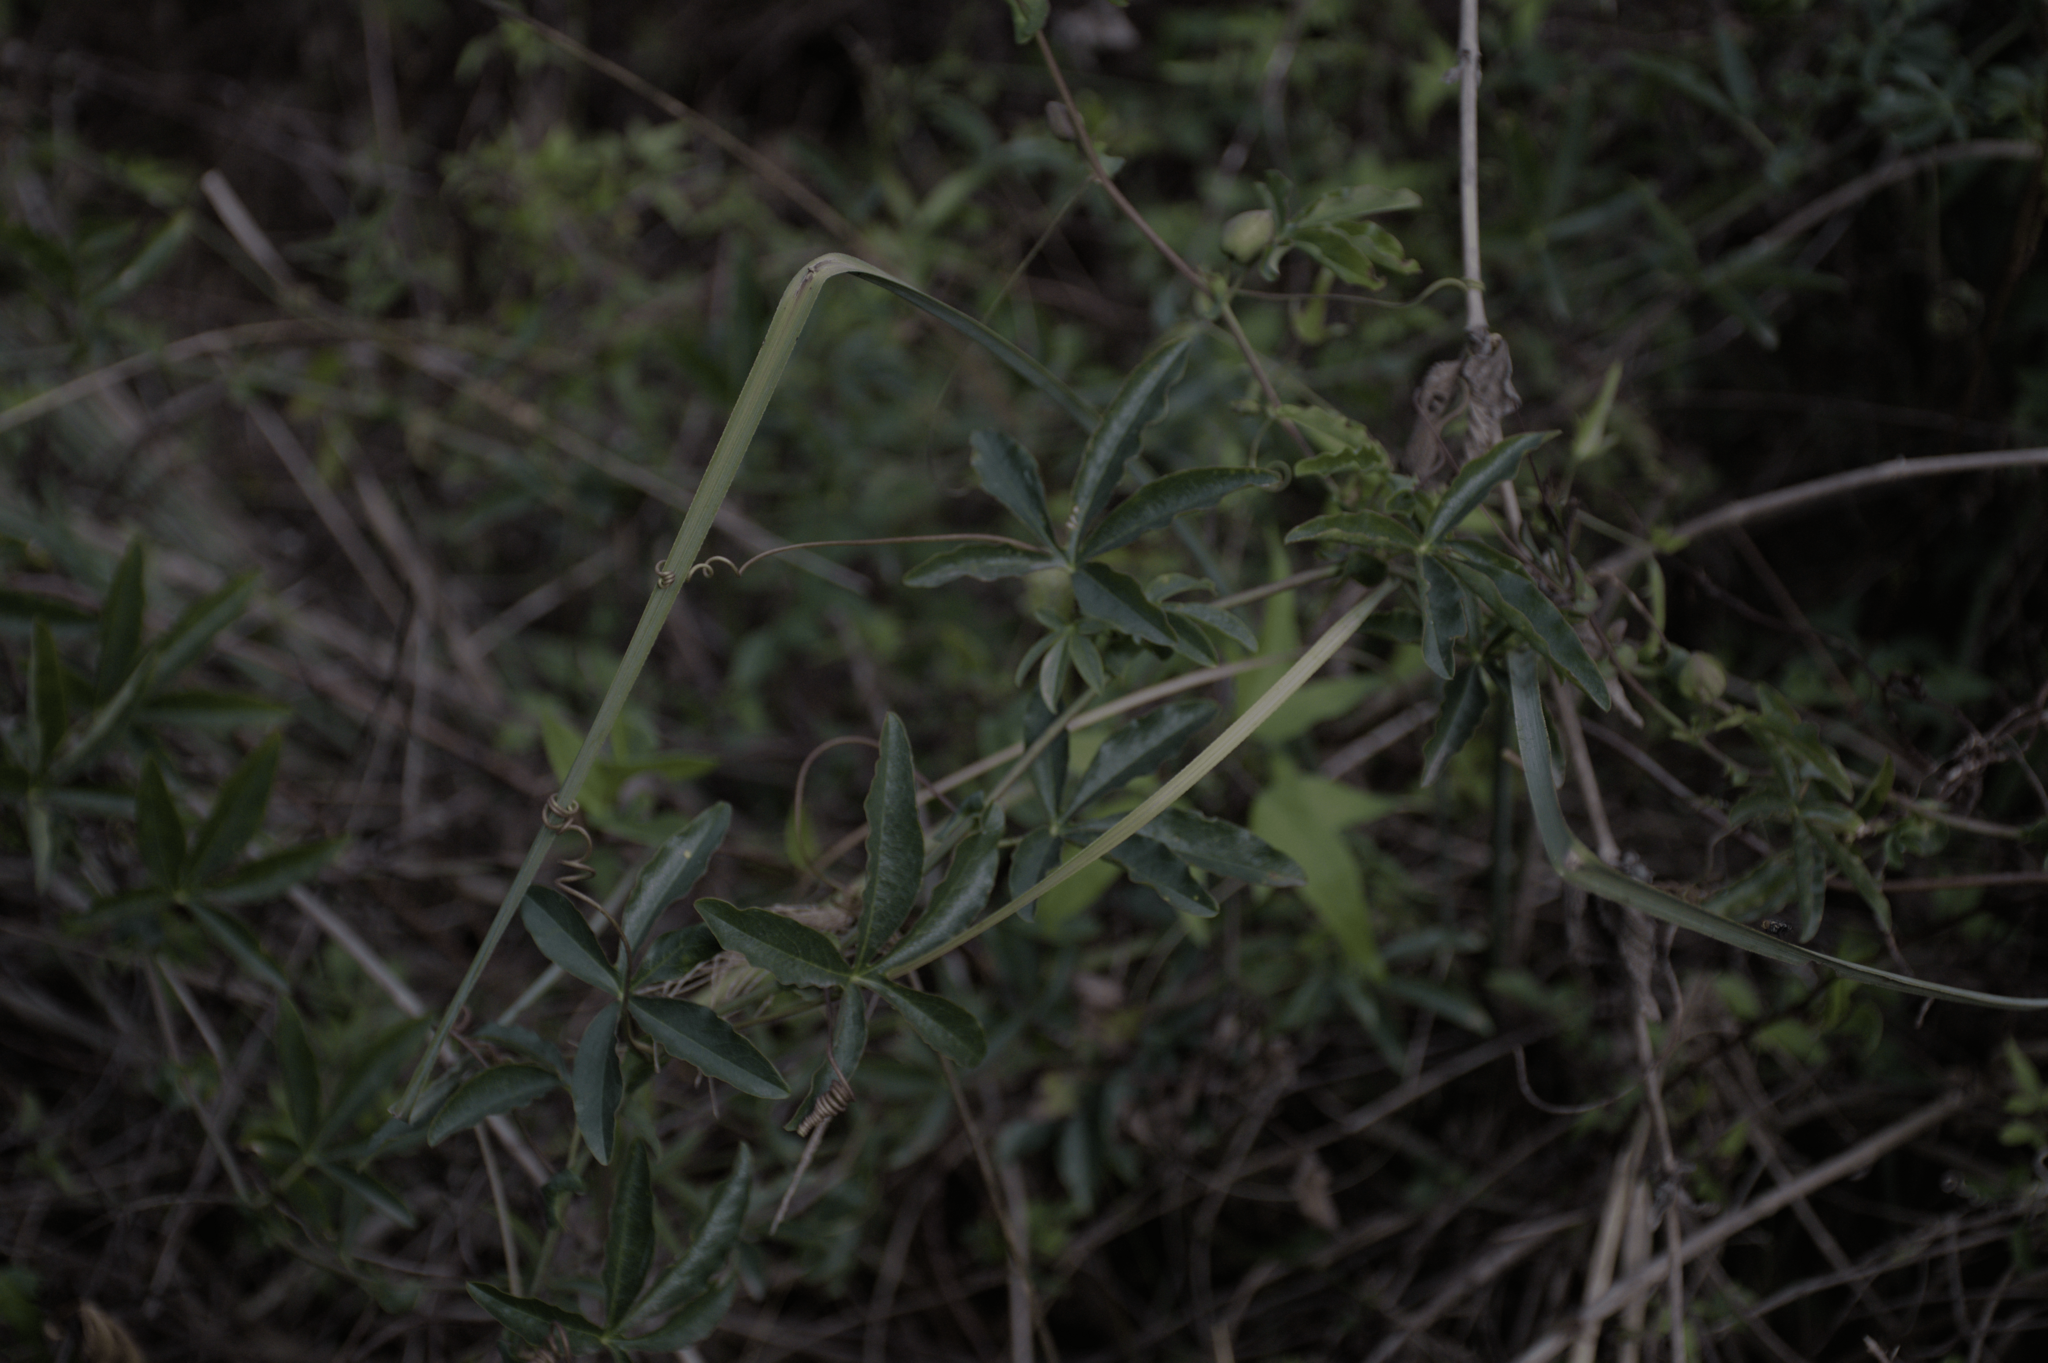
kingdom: Plantae
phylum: Tracheophyta
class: Magnoliopsida
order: Malpighiales
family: Passifloraceae
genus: Passiflora
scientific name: Passiflora caerulea
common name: Blue passionflower
